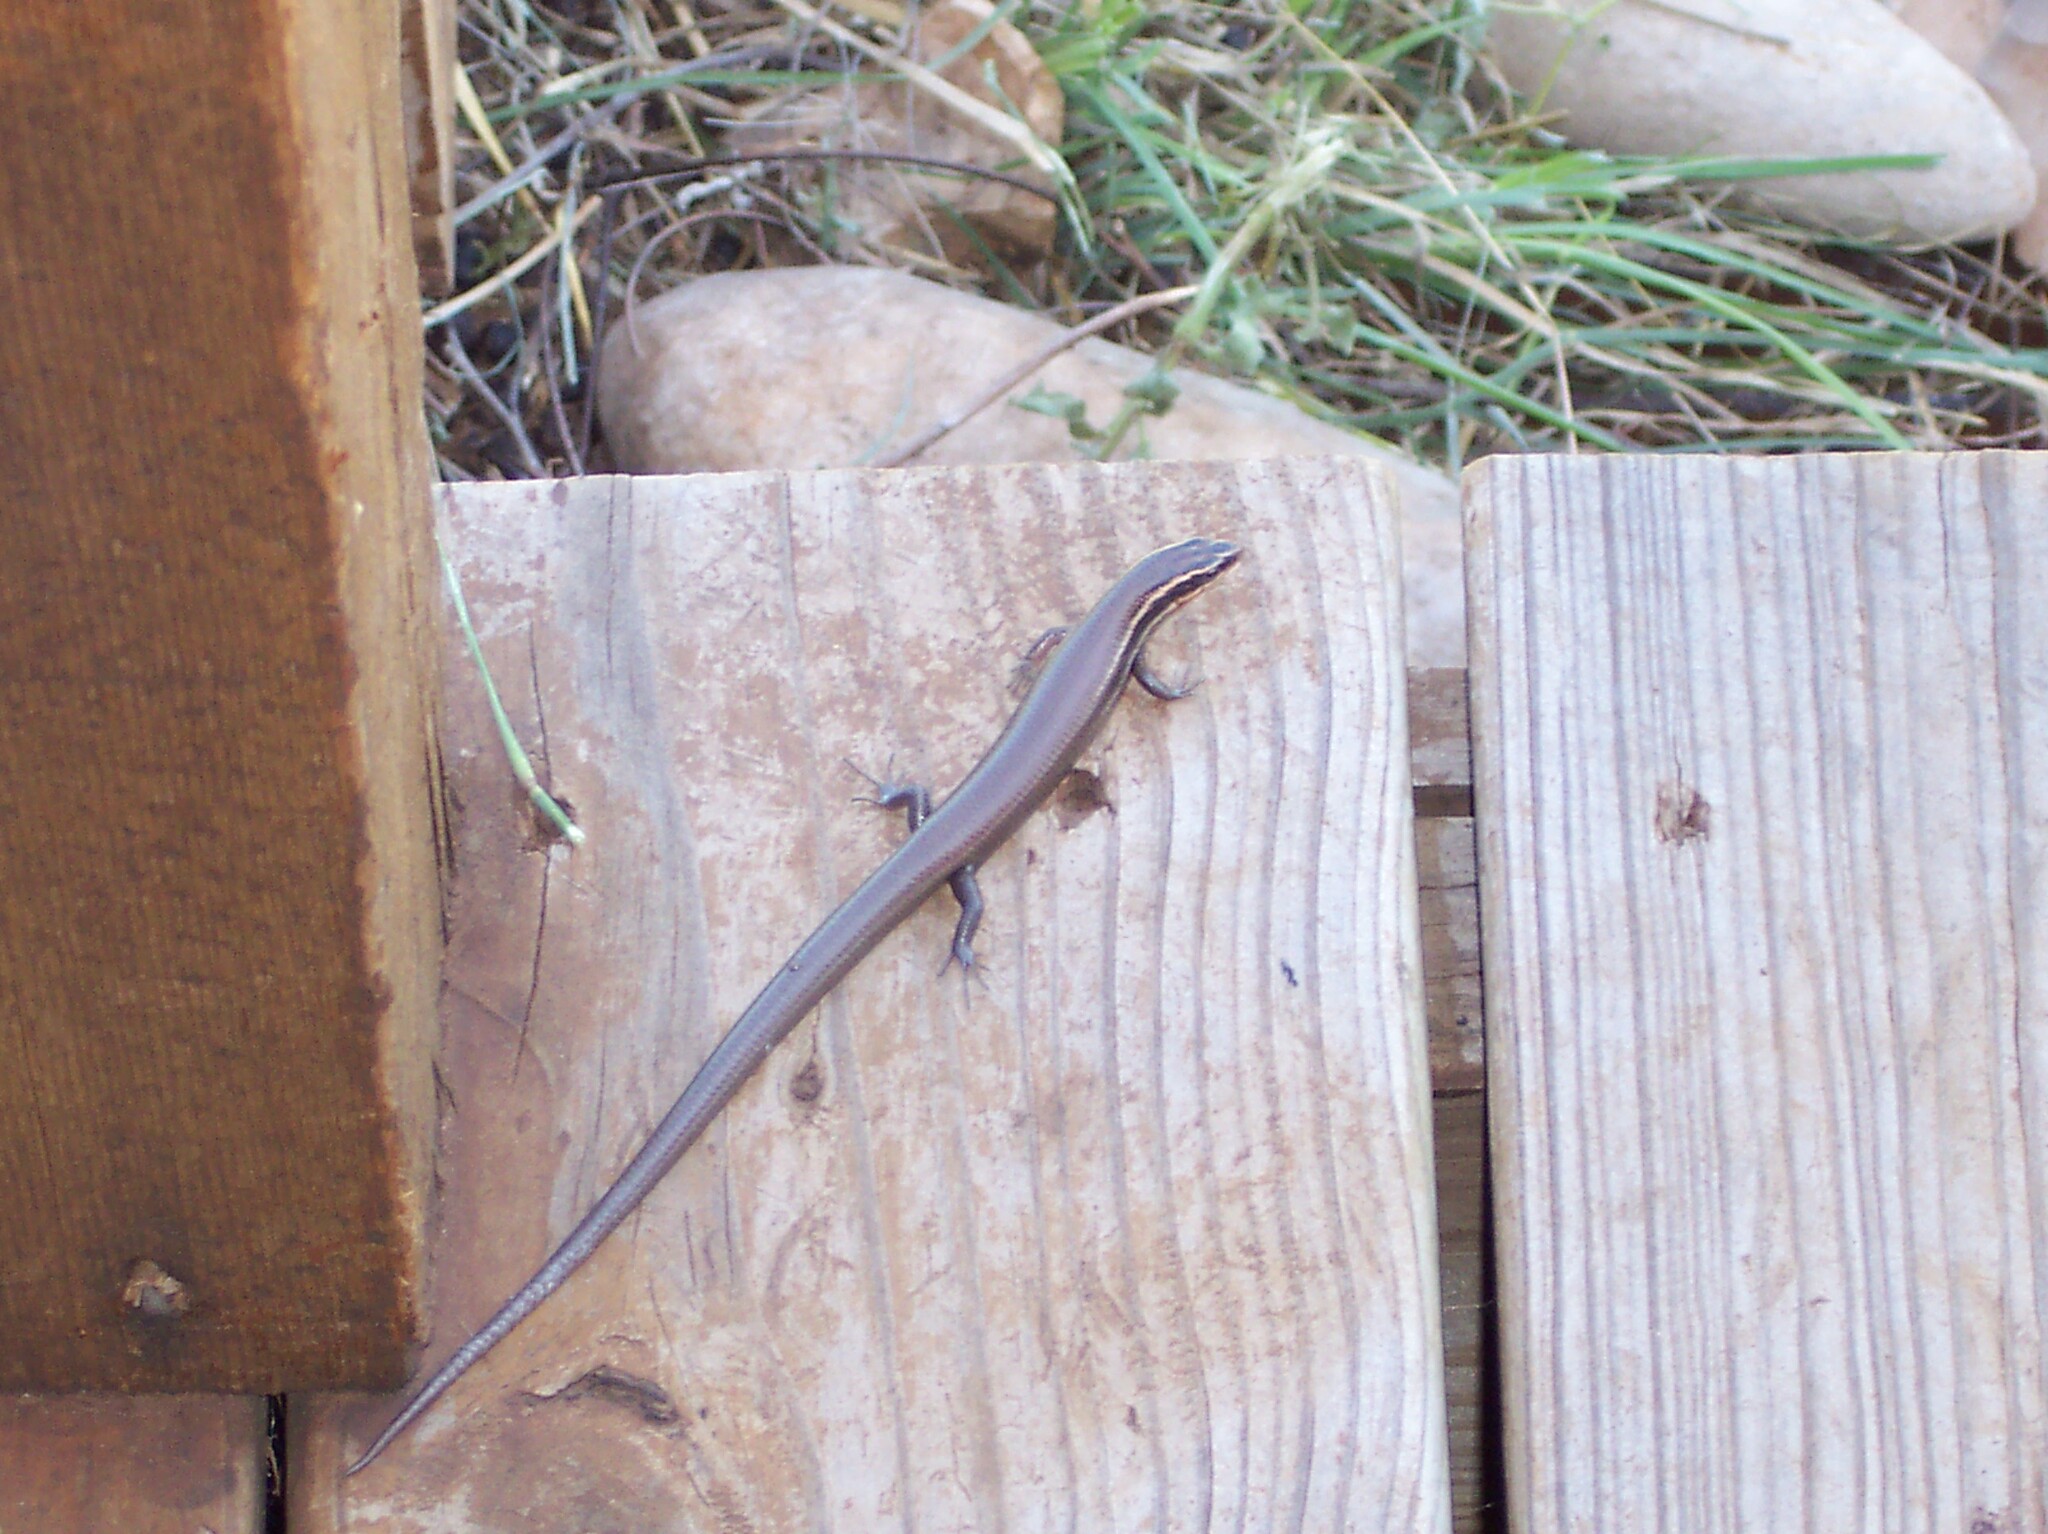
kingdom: Animalia
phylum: Chordata
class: Squamata
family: Scincidae
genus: Plestiodon
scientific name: Plestiodon tetragrammus
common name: Four-lined skink
